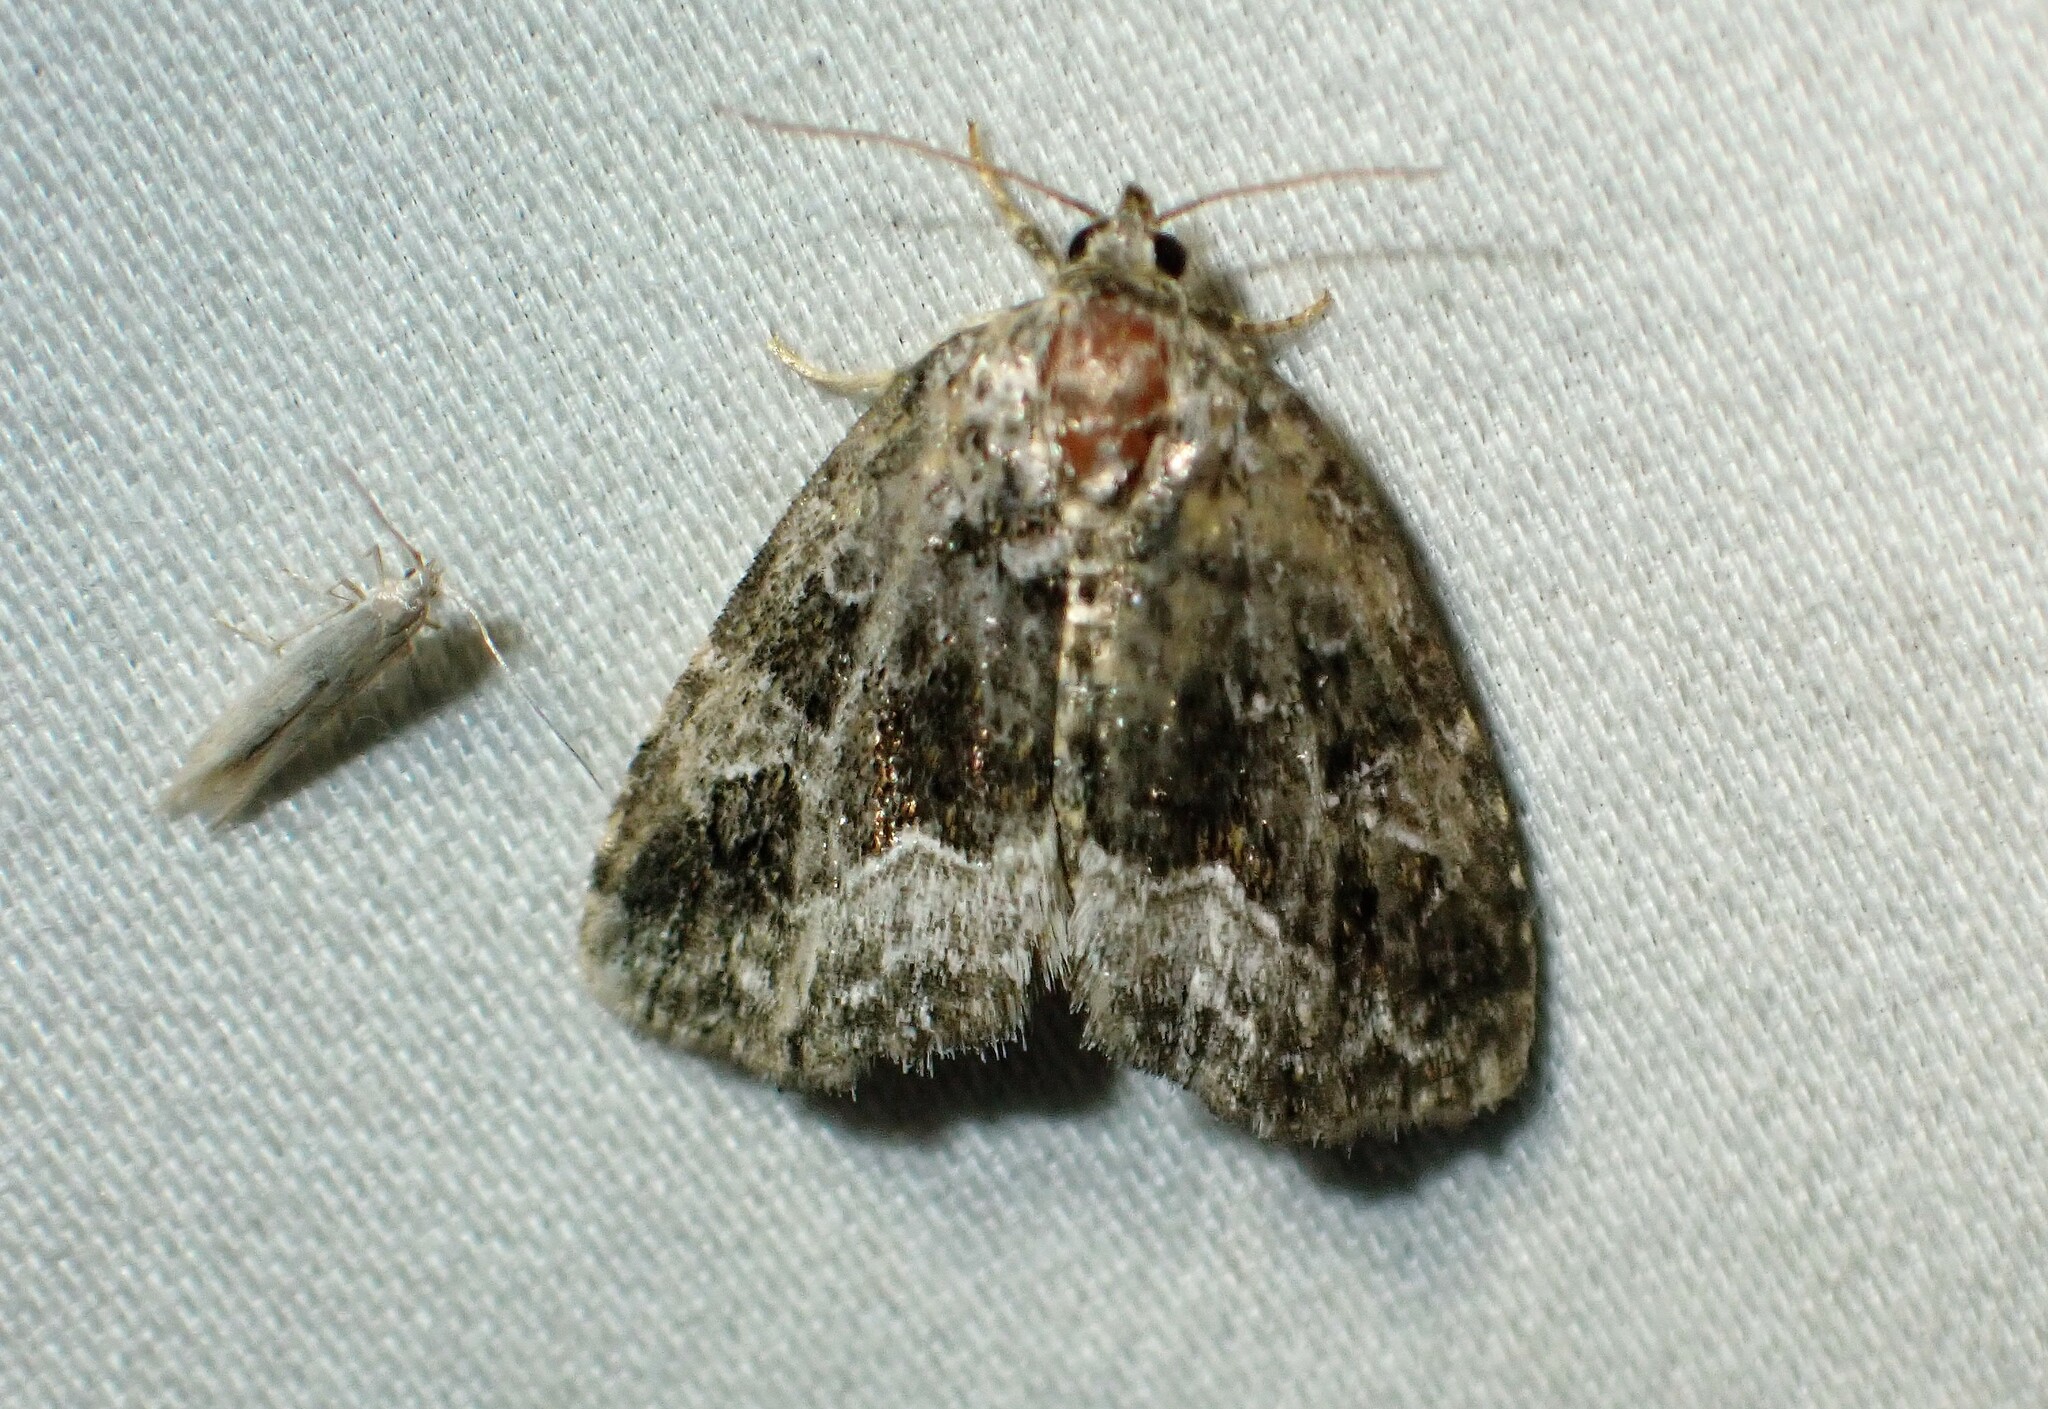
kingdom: Animalia
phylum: Arthropoda
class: Insecta
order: Lepidoptera
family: Noctuidae
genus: Protodeltote
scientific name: Protodeltote muscosula
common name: Large mossy glyph
